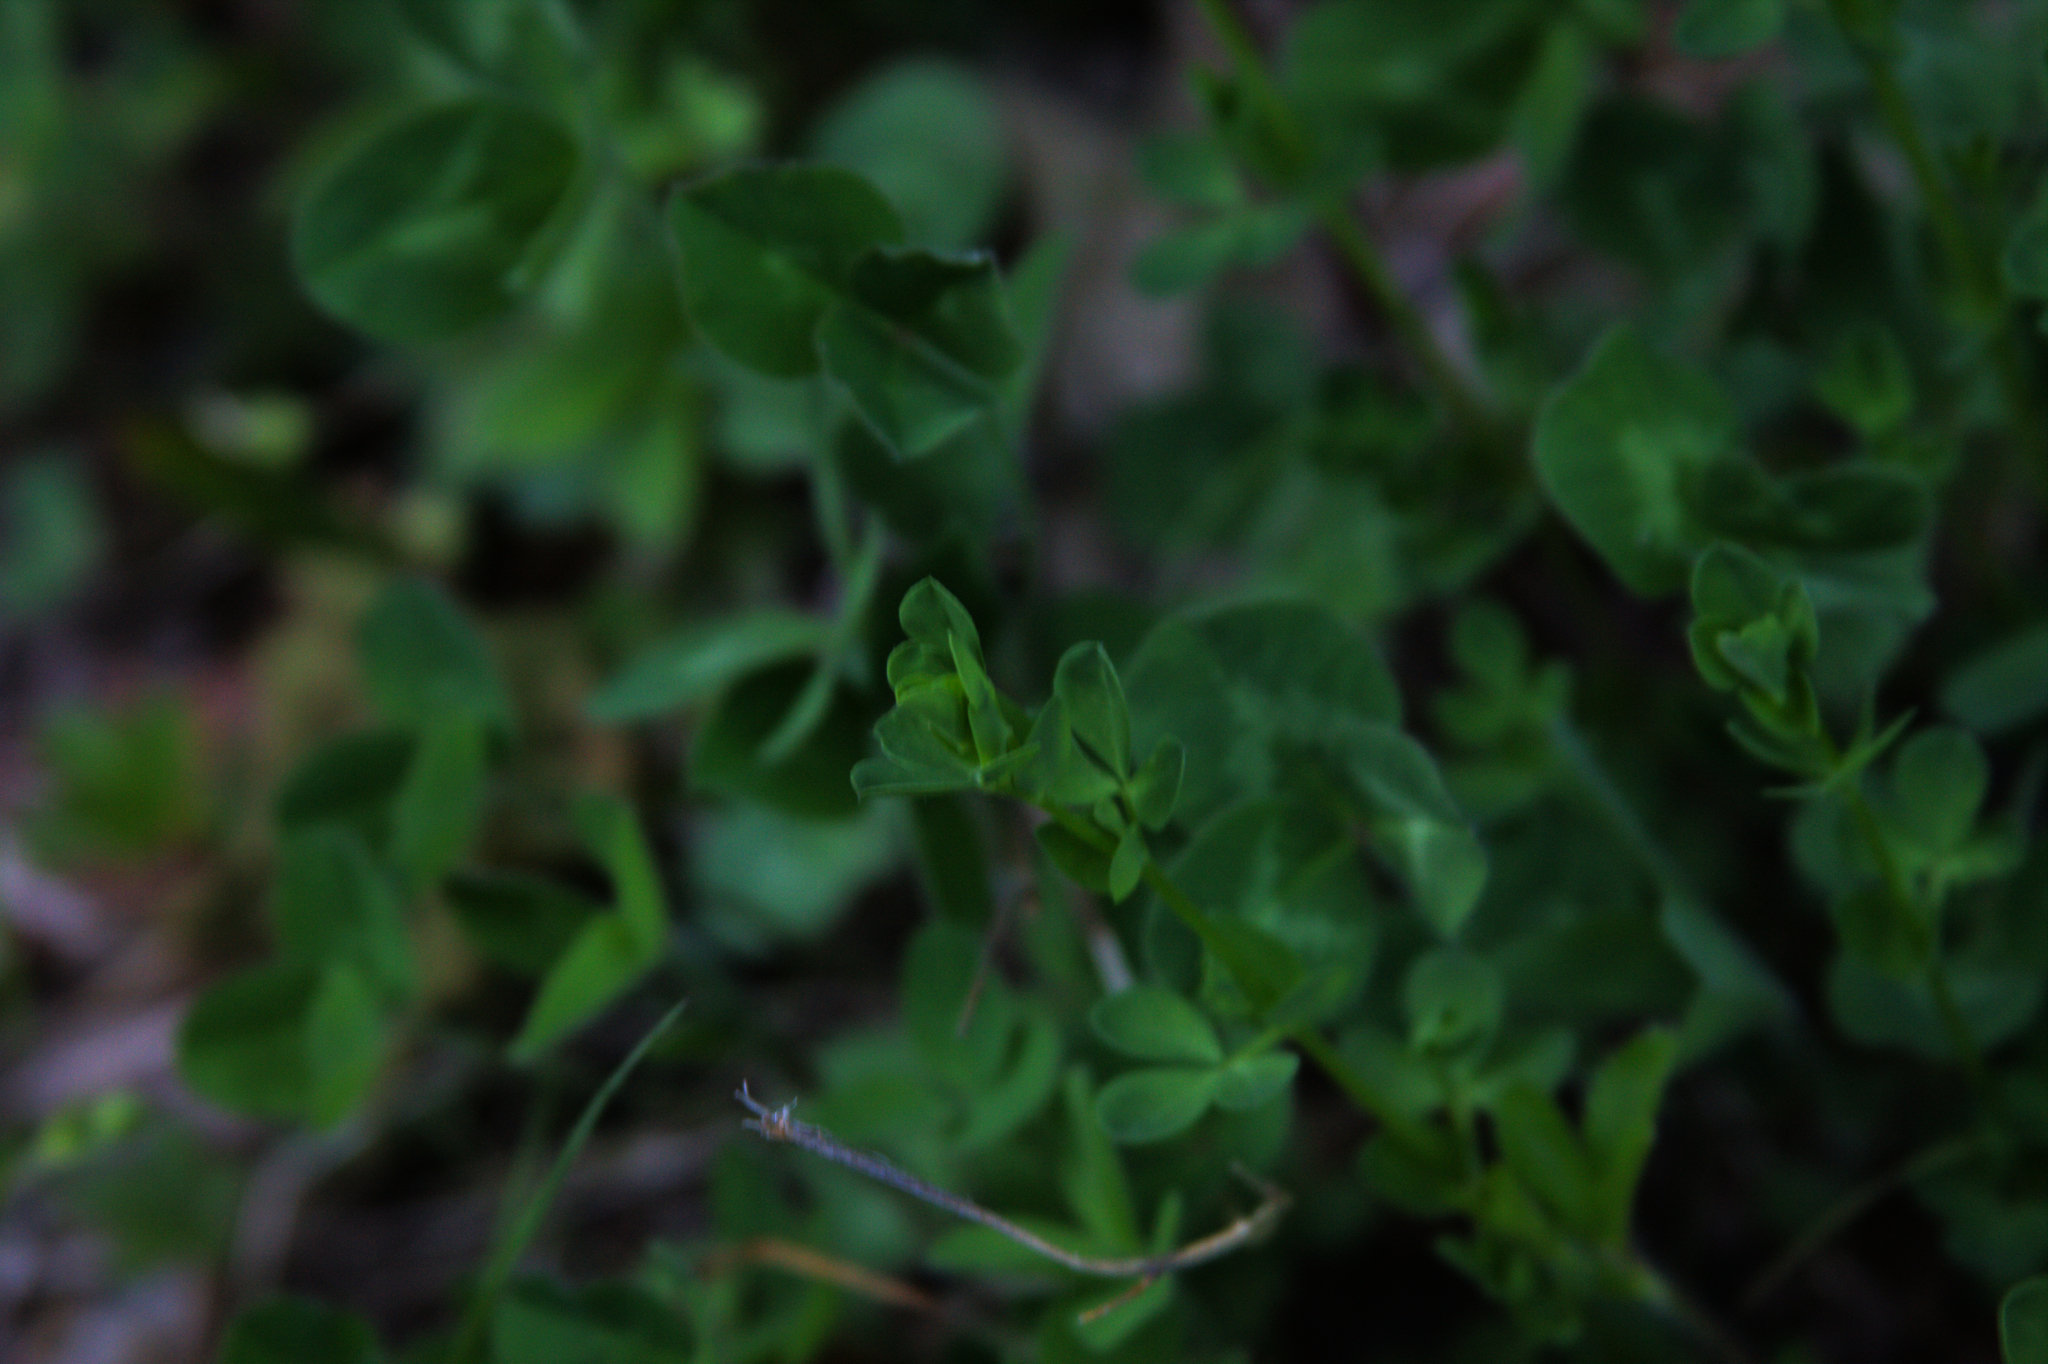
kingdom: Plantae
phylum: Tracheophyta
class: Magnoliopsida
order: Fabales
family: Fabaceae
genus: Lotus
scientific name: Lotus corniculatus
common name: Common bird's-foot-trefoil
